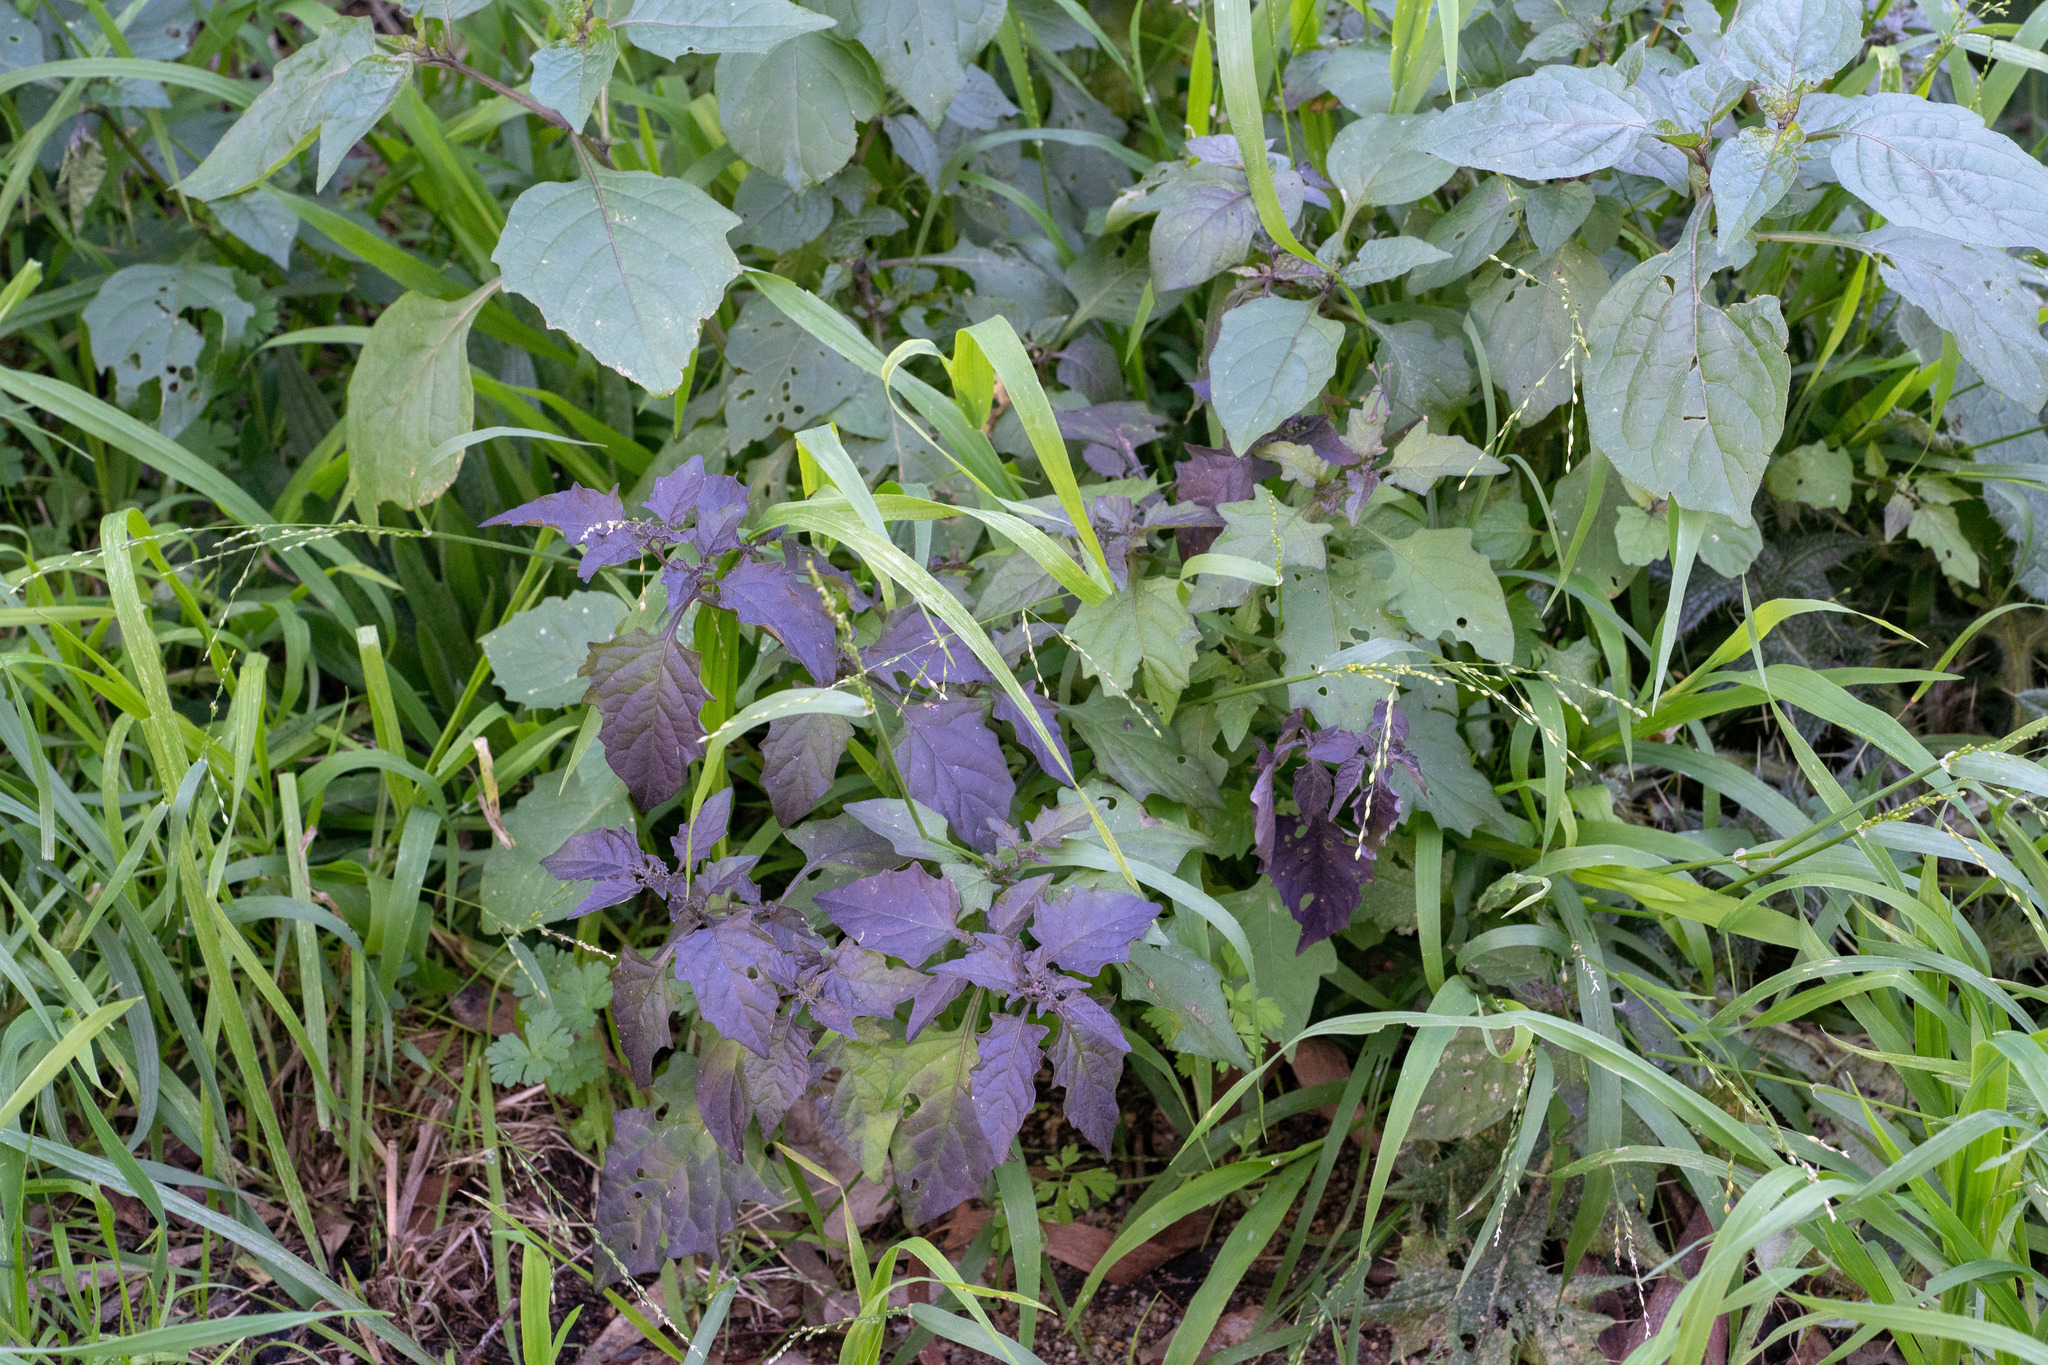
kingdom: Plantae
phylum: Tracheophyta
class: Magnoliopsida
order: Solanales
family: Solanaceae
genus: Solanum
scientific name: Solanum
